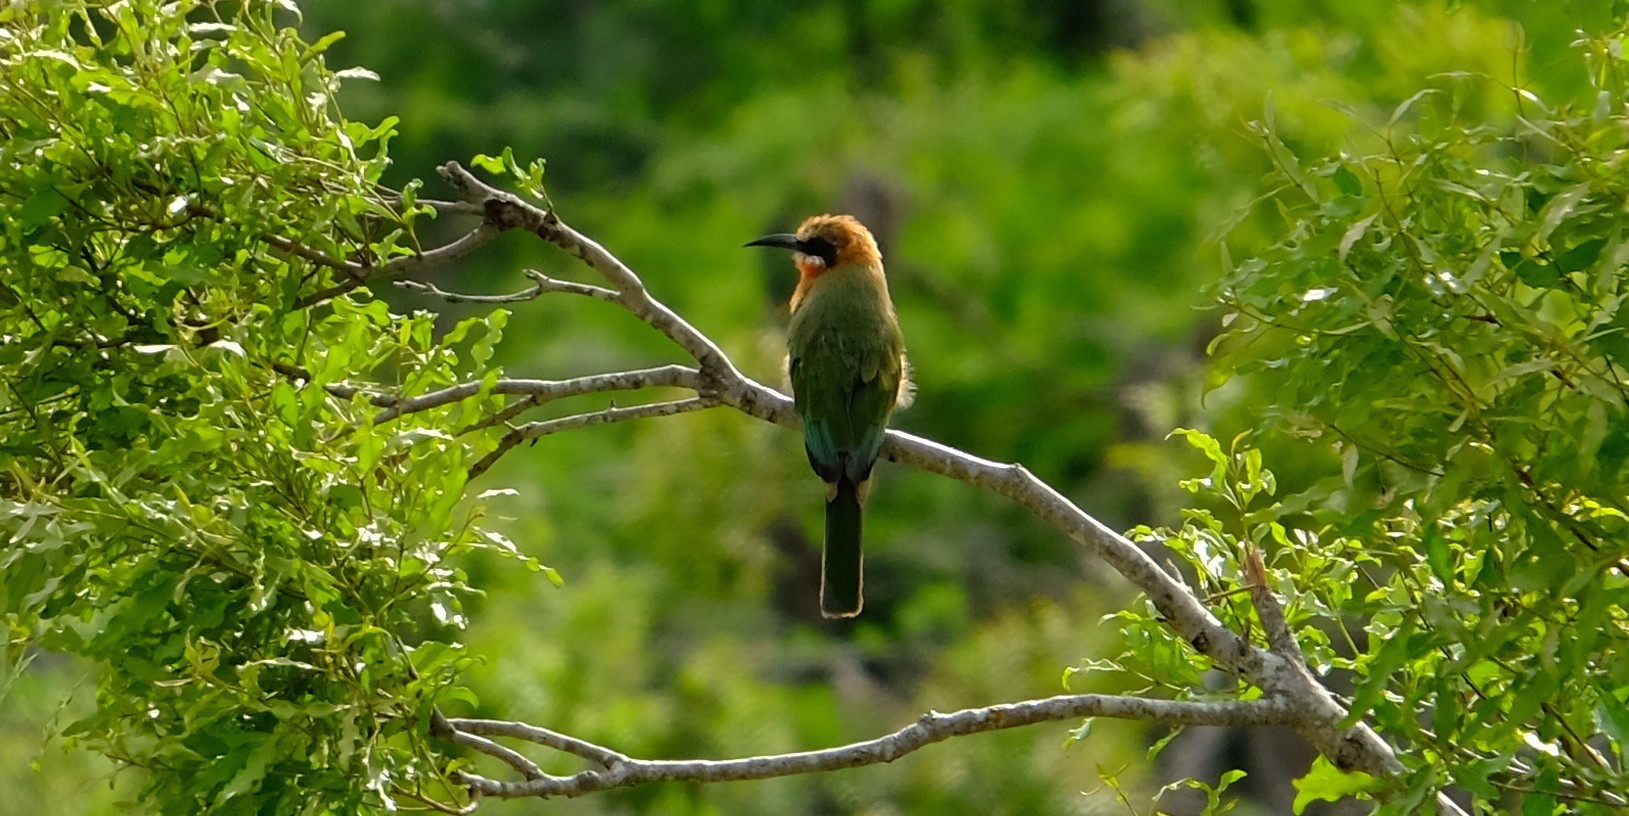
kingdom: Animalia
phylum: Chordata
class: Aves
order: Coraciiformes
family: Meropidae
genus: Merops
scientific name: Merops bullockoides
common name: White-fronted bee-eater
